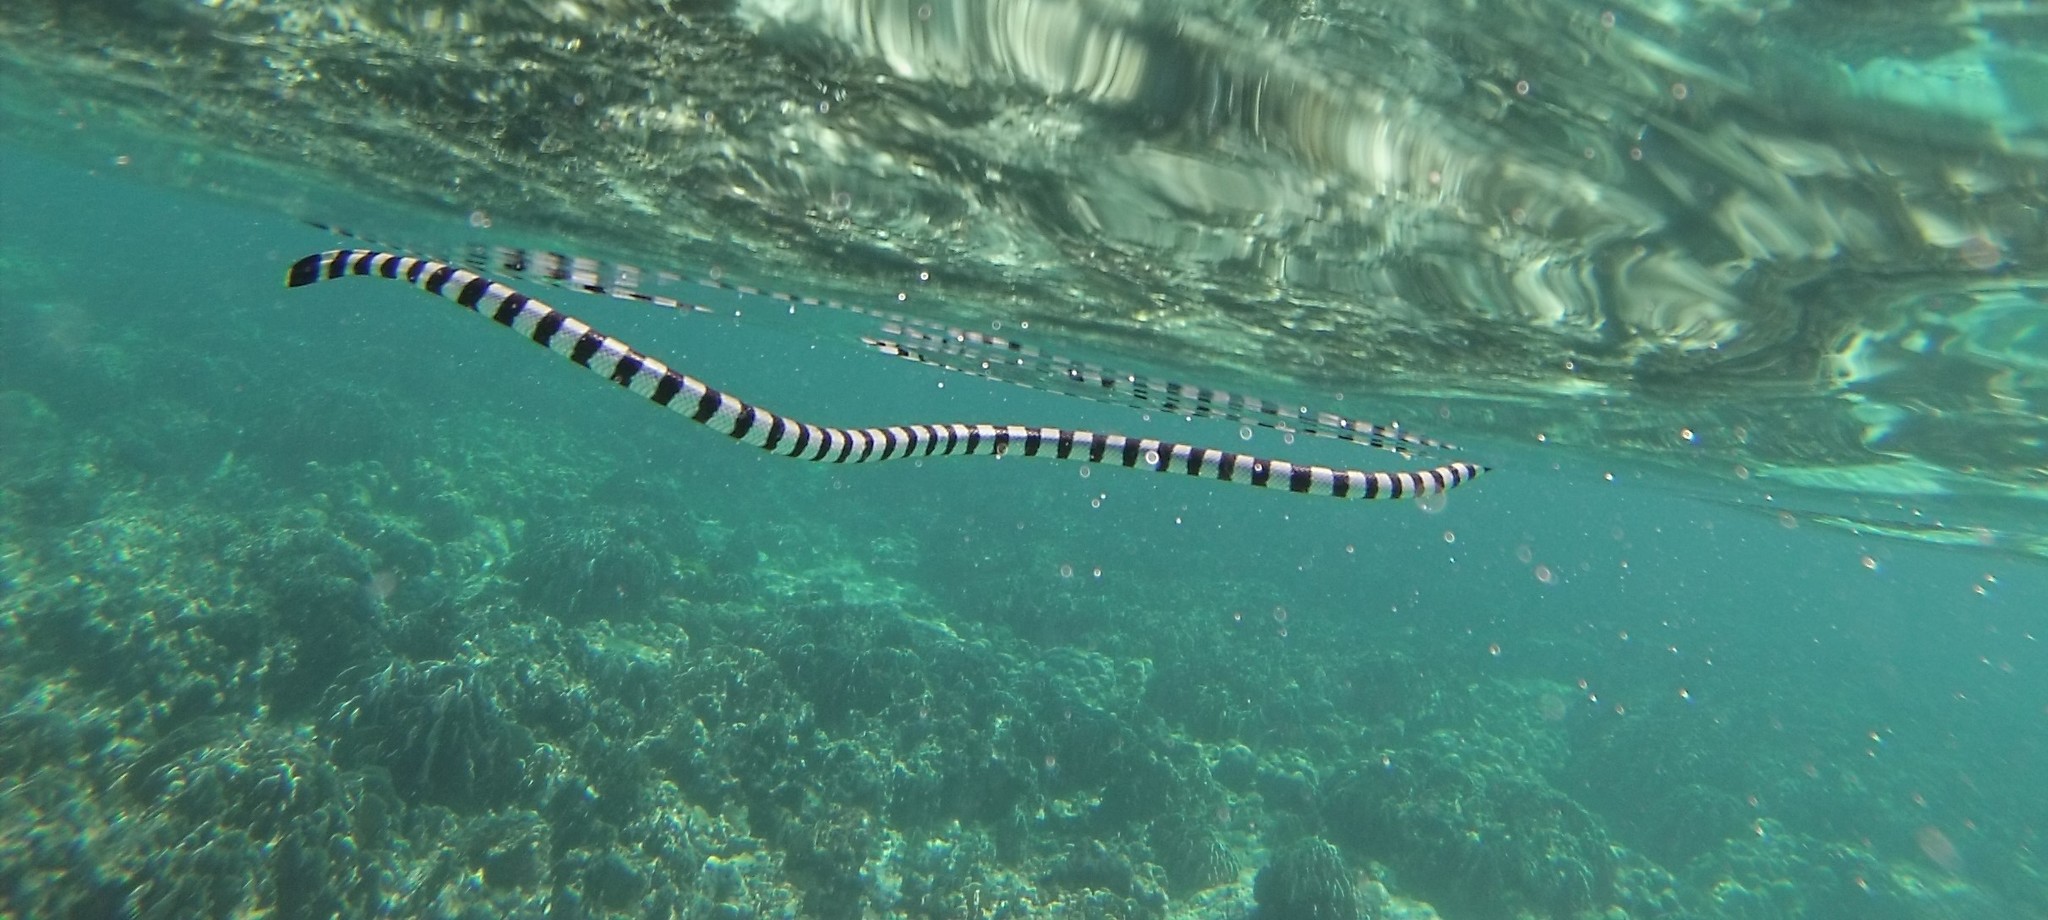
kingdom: Animalia
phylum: Chordata
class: Squamata
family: Elapidae
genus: Laticauda
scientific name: Laticauda colubrina
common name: Yellow-lipped sea krait
